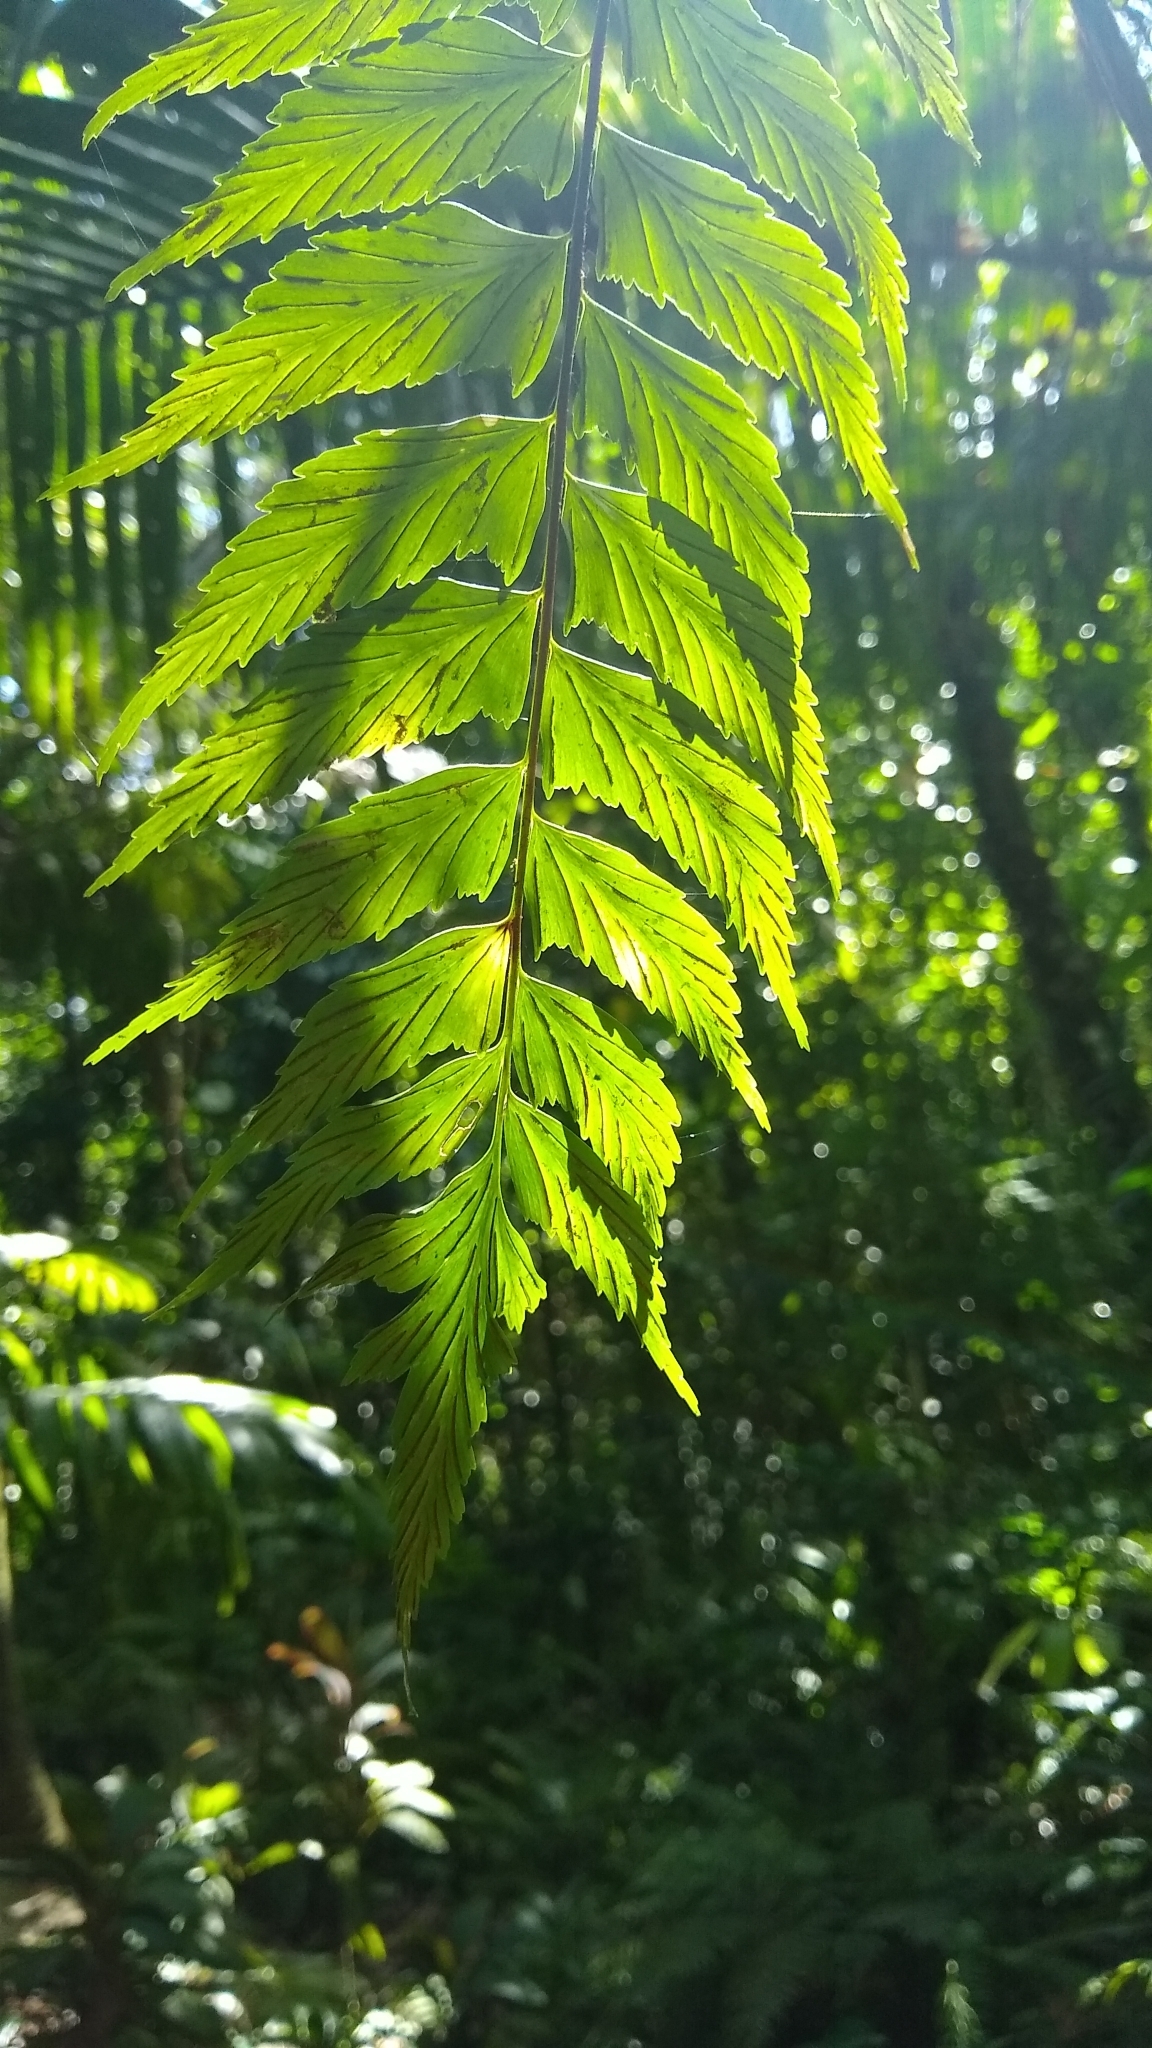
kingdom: Plantae
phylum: Tracheophyta
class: Polypodiopsida
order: Polypodiales
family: Aspleniaceae
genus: Asplenium
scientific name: Asplenium polyodon
